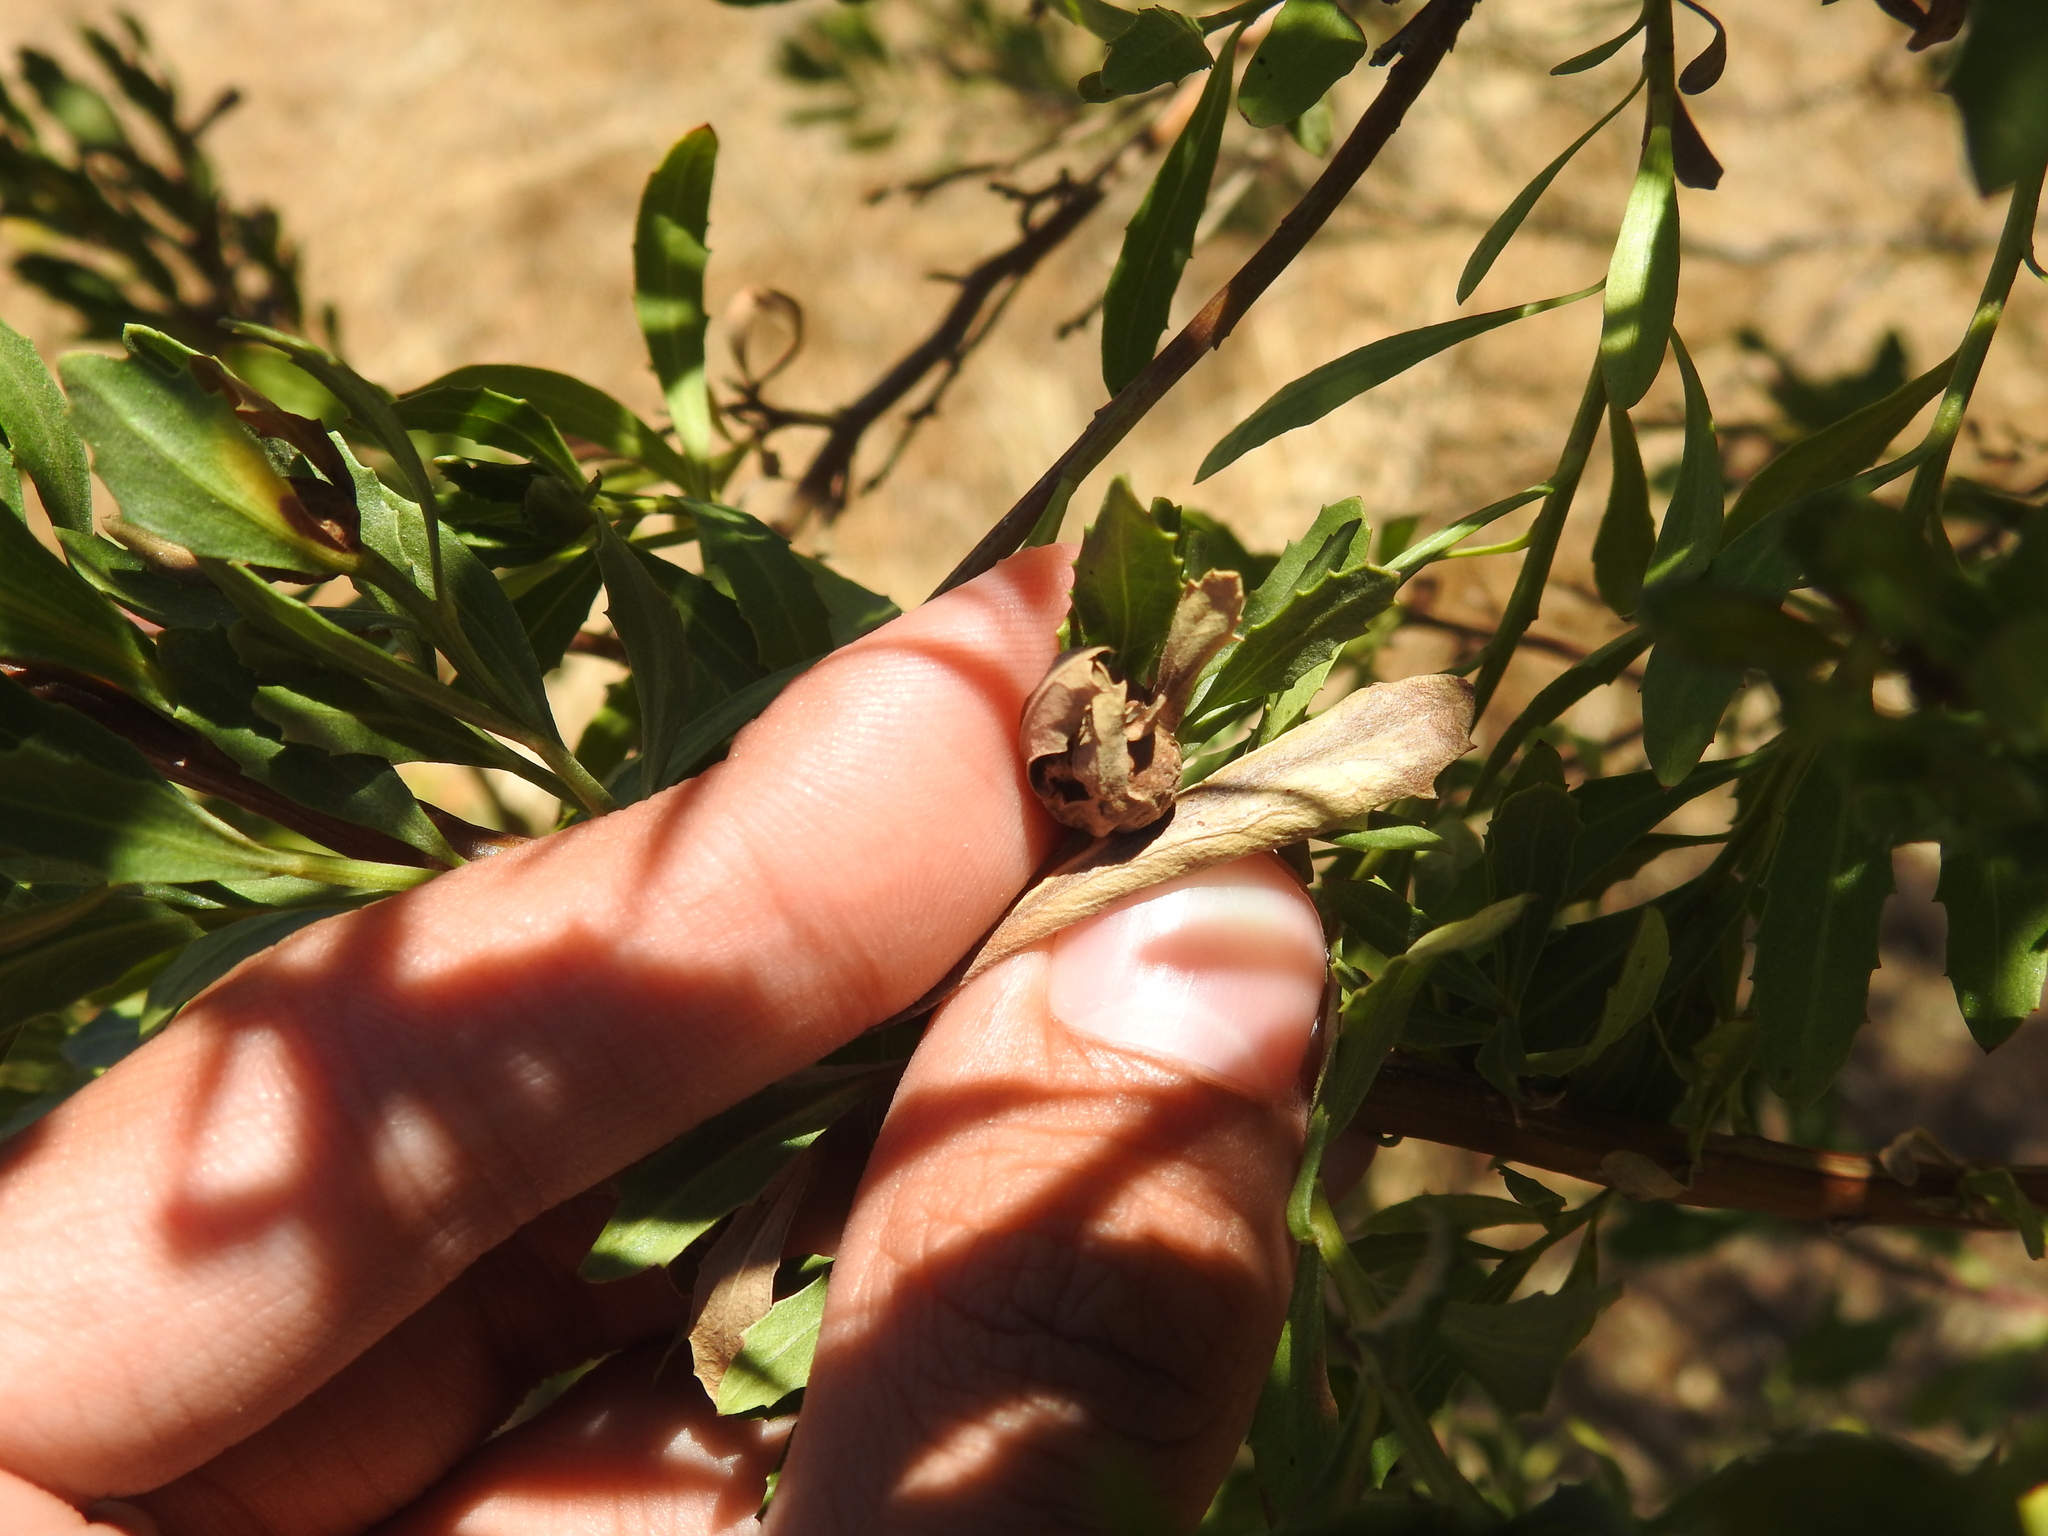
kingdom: Animalia
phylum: Arthropoda
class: Insecta
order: Diptera
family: Cecidomyiidae
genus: Rhopalomyia
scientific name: Rhopalomyia californica
